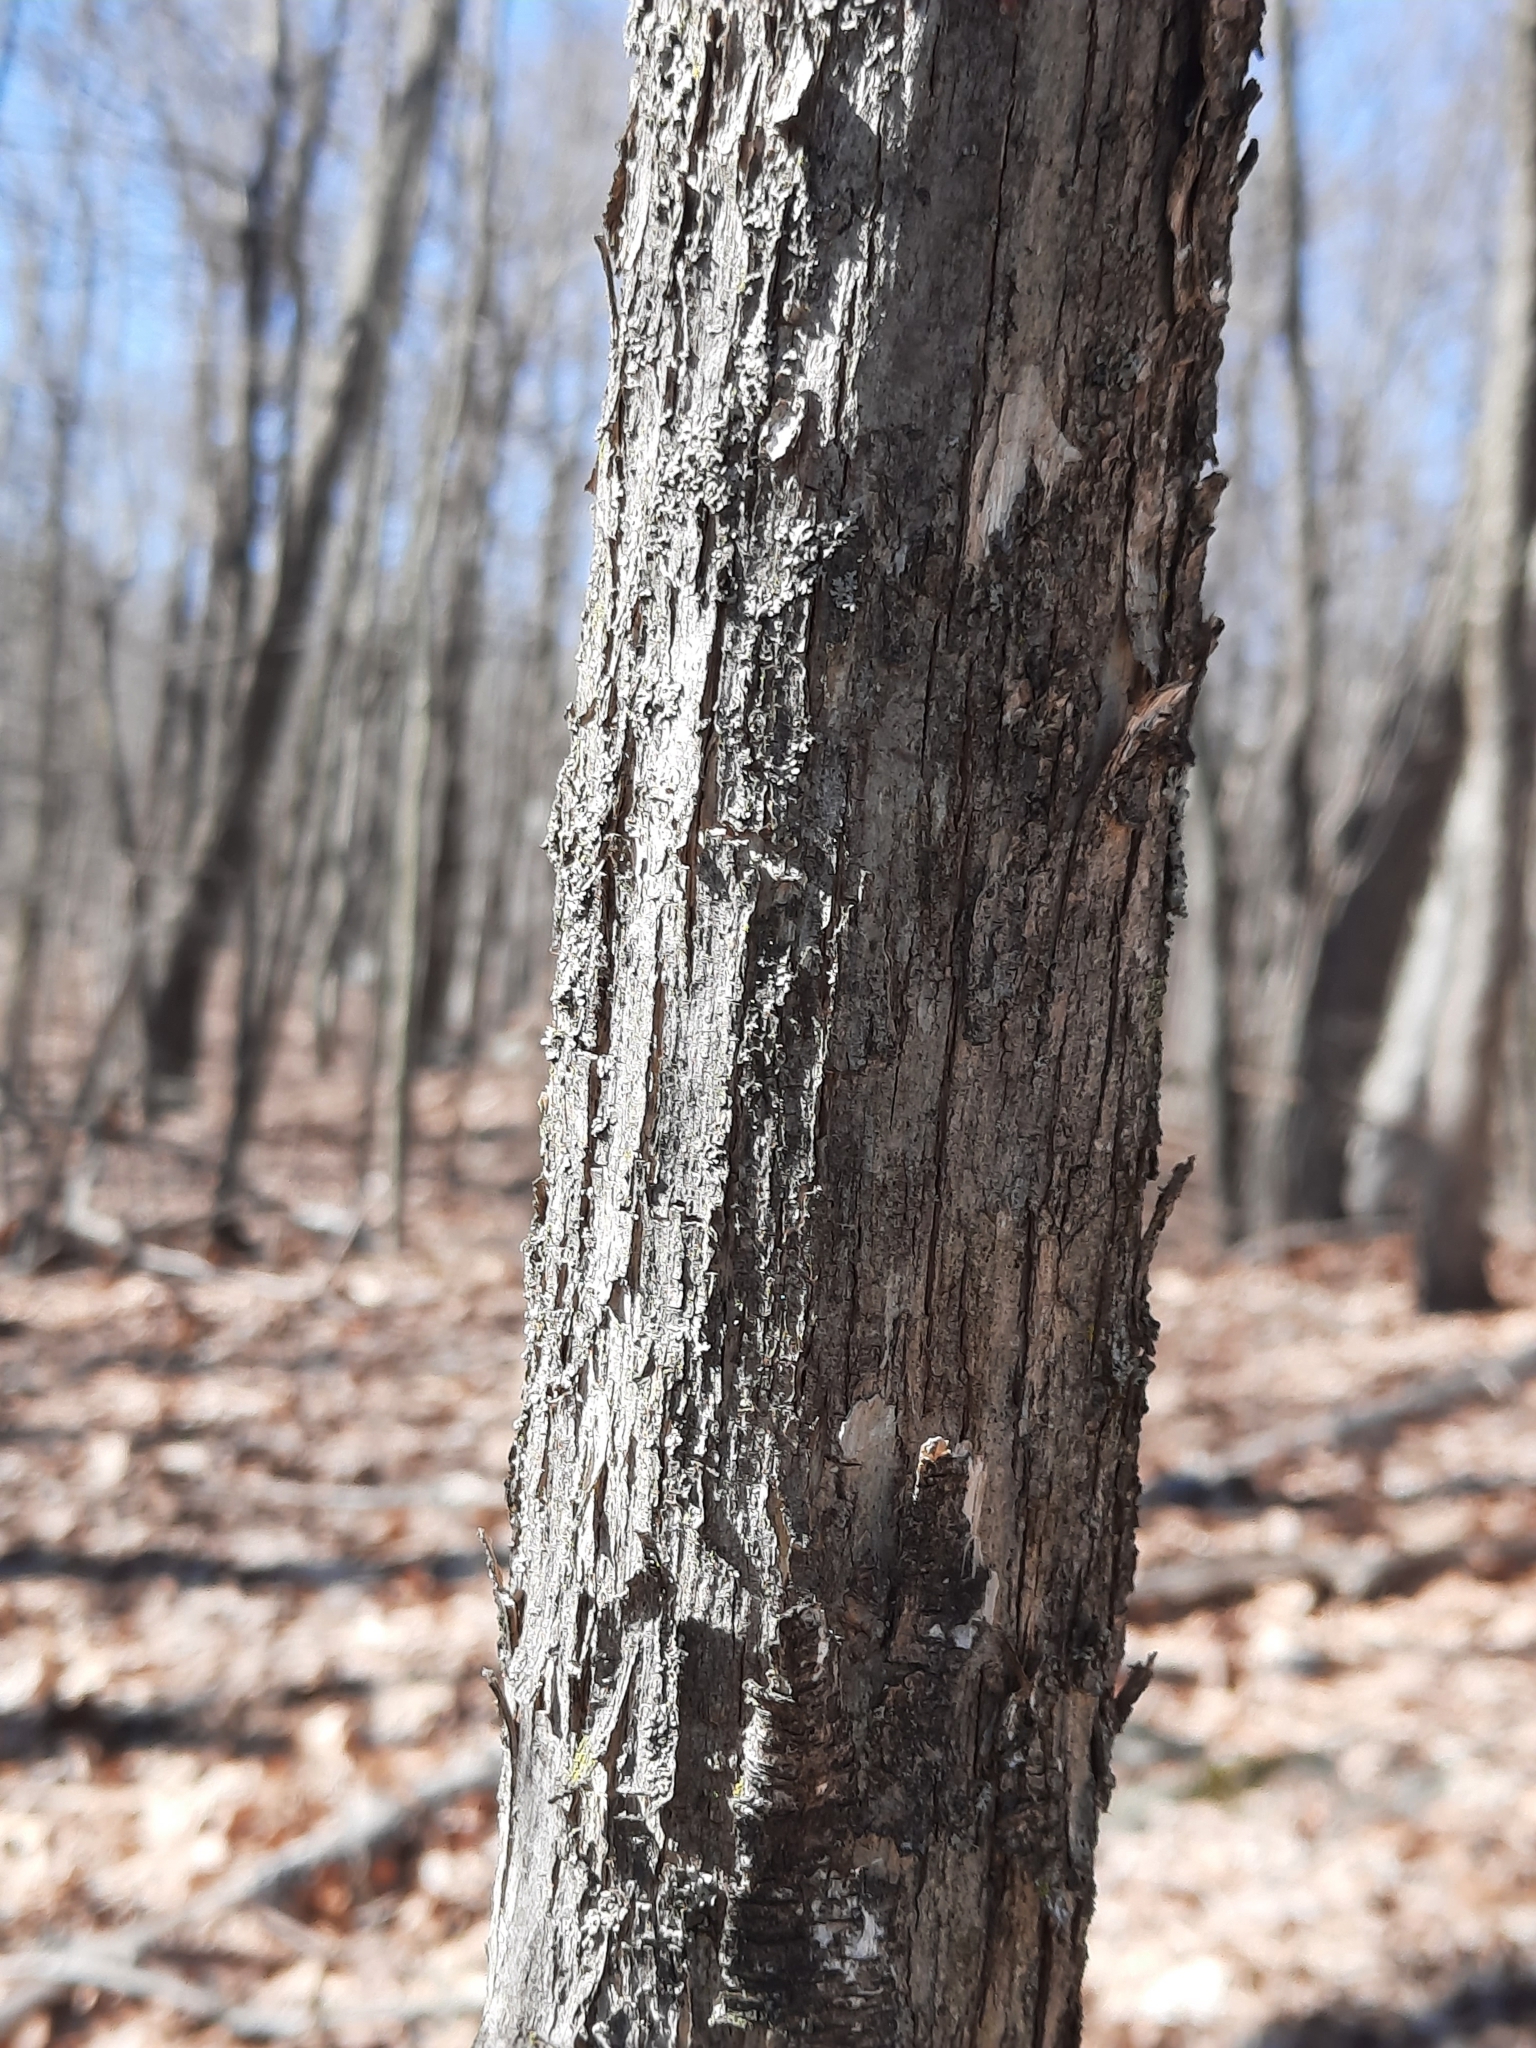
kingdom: Plantae
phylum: Tracheophyta
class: Magnoliopsida
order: Fagales
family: Betulaceae
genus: Ostrya
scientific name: Ostrya virginiana
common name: Ironwood
